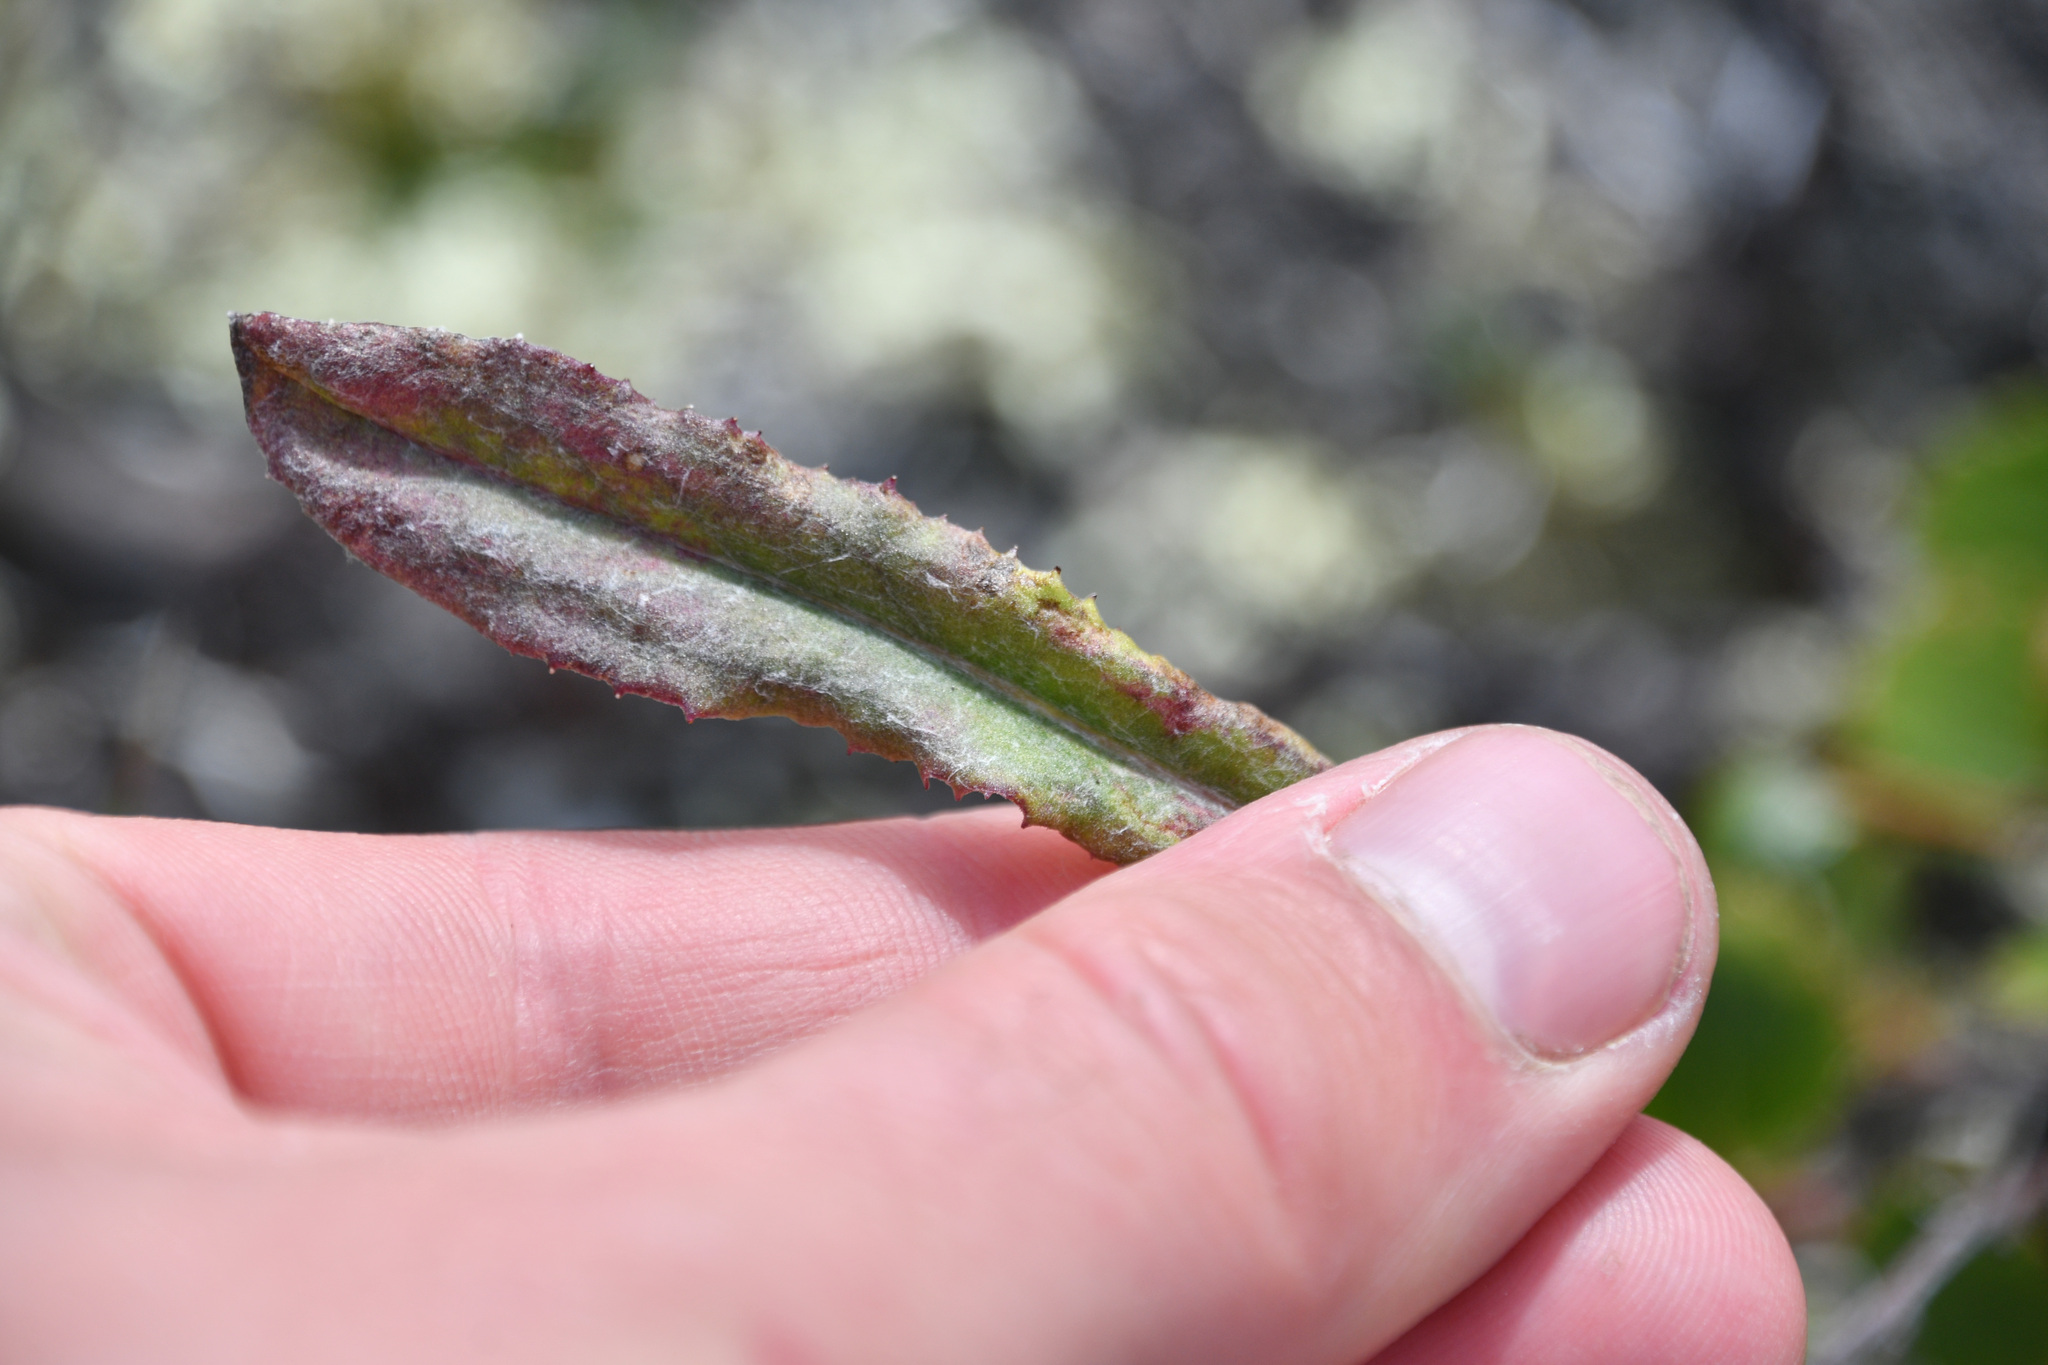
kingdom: Plantae
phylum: Tracheophyta
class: Magnoliopsida
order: Asterales
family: Asteraceae
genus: Senecio
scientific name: Senecio lugens
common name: Black-tip groundsel
